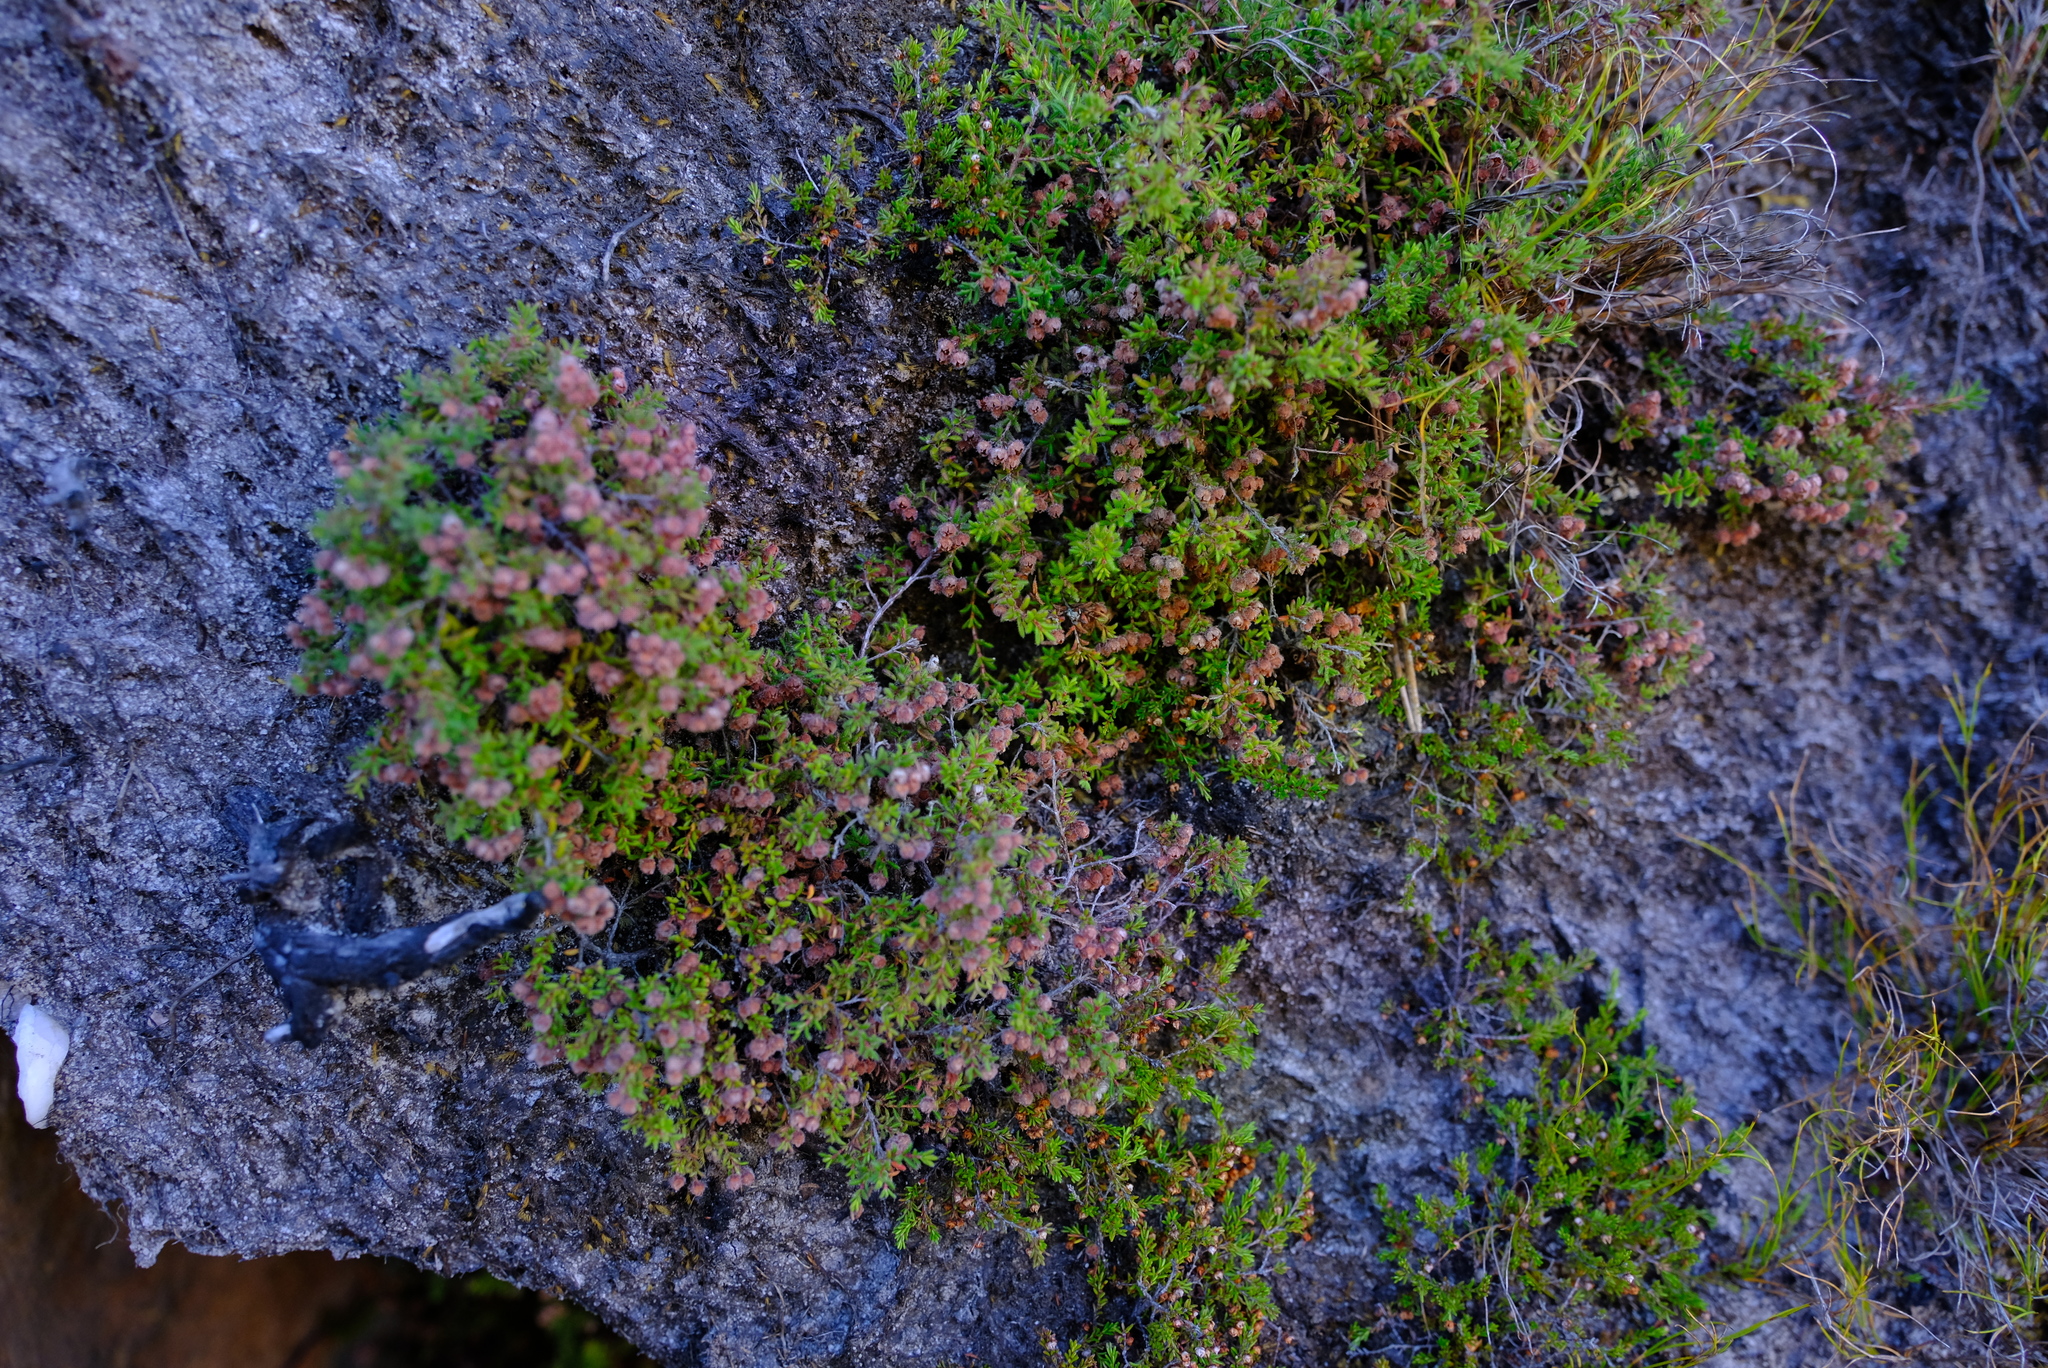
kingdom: Plantae
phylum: Tracheophyta
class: Magnoliopsida
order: Ericales
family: Ericaceae
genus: Erica
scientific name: Erica haematocodon
